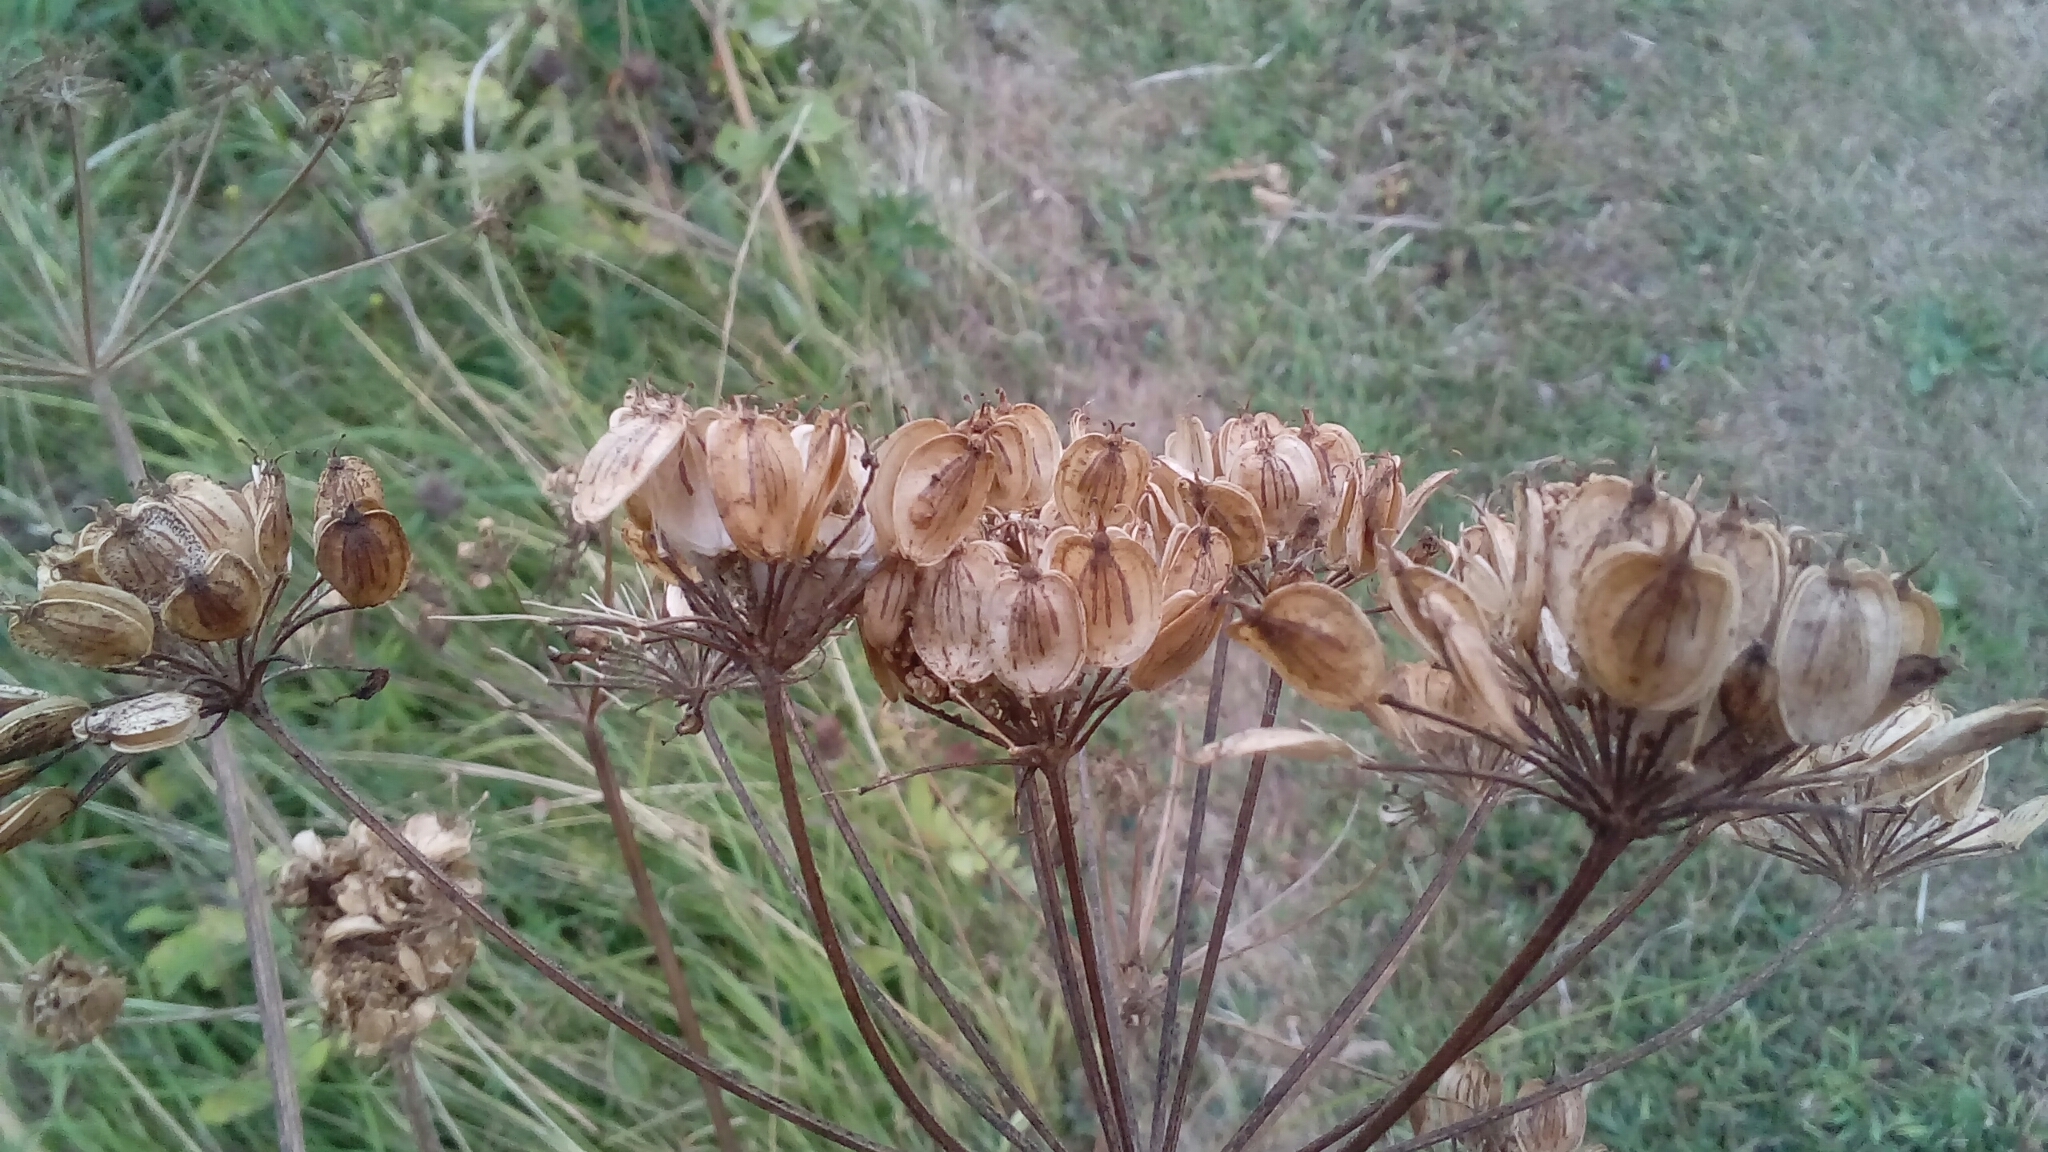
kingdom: Plantae
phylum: Tracheophyta
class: Magnoliopsida
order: Apiales
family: Apiaceae
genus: Heracleum
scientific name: Heracleum sphondylium
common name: Hogweed
